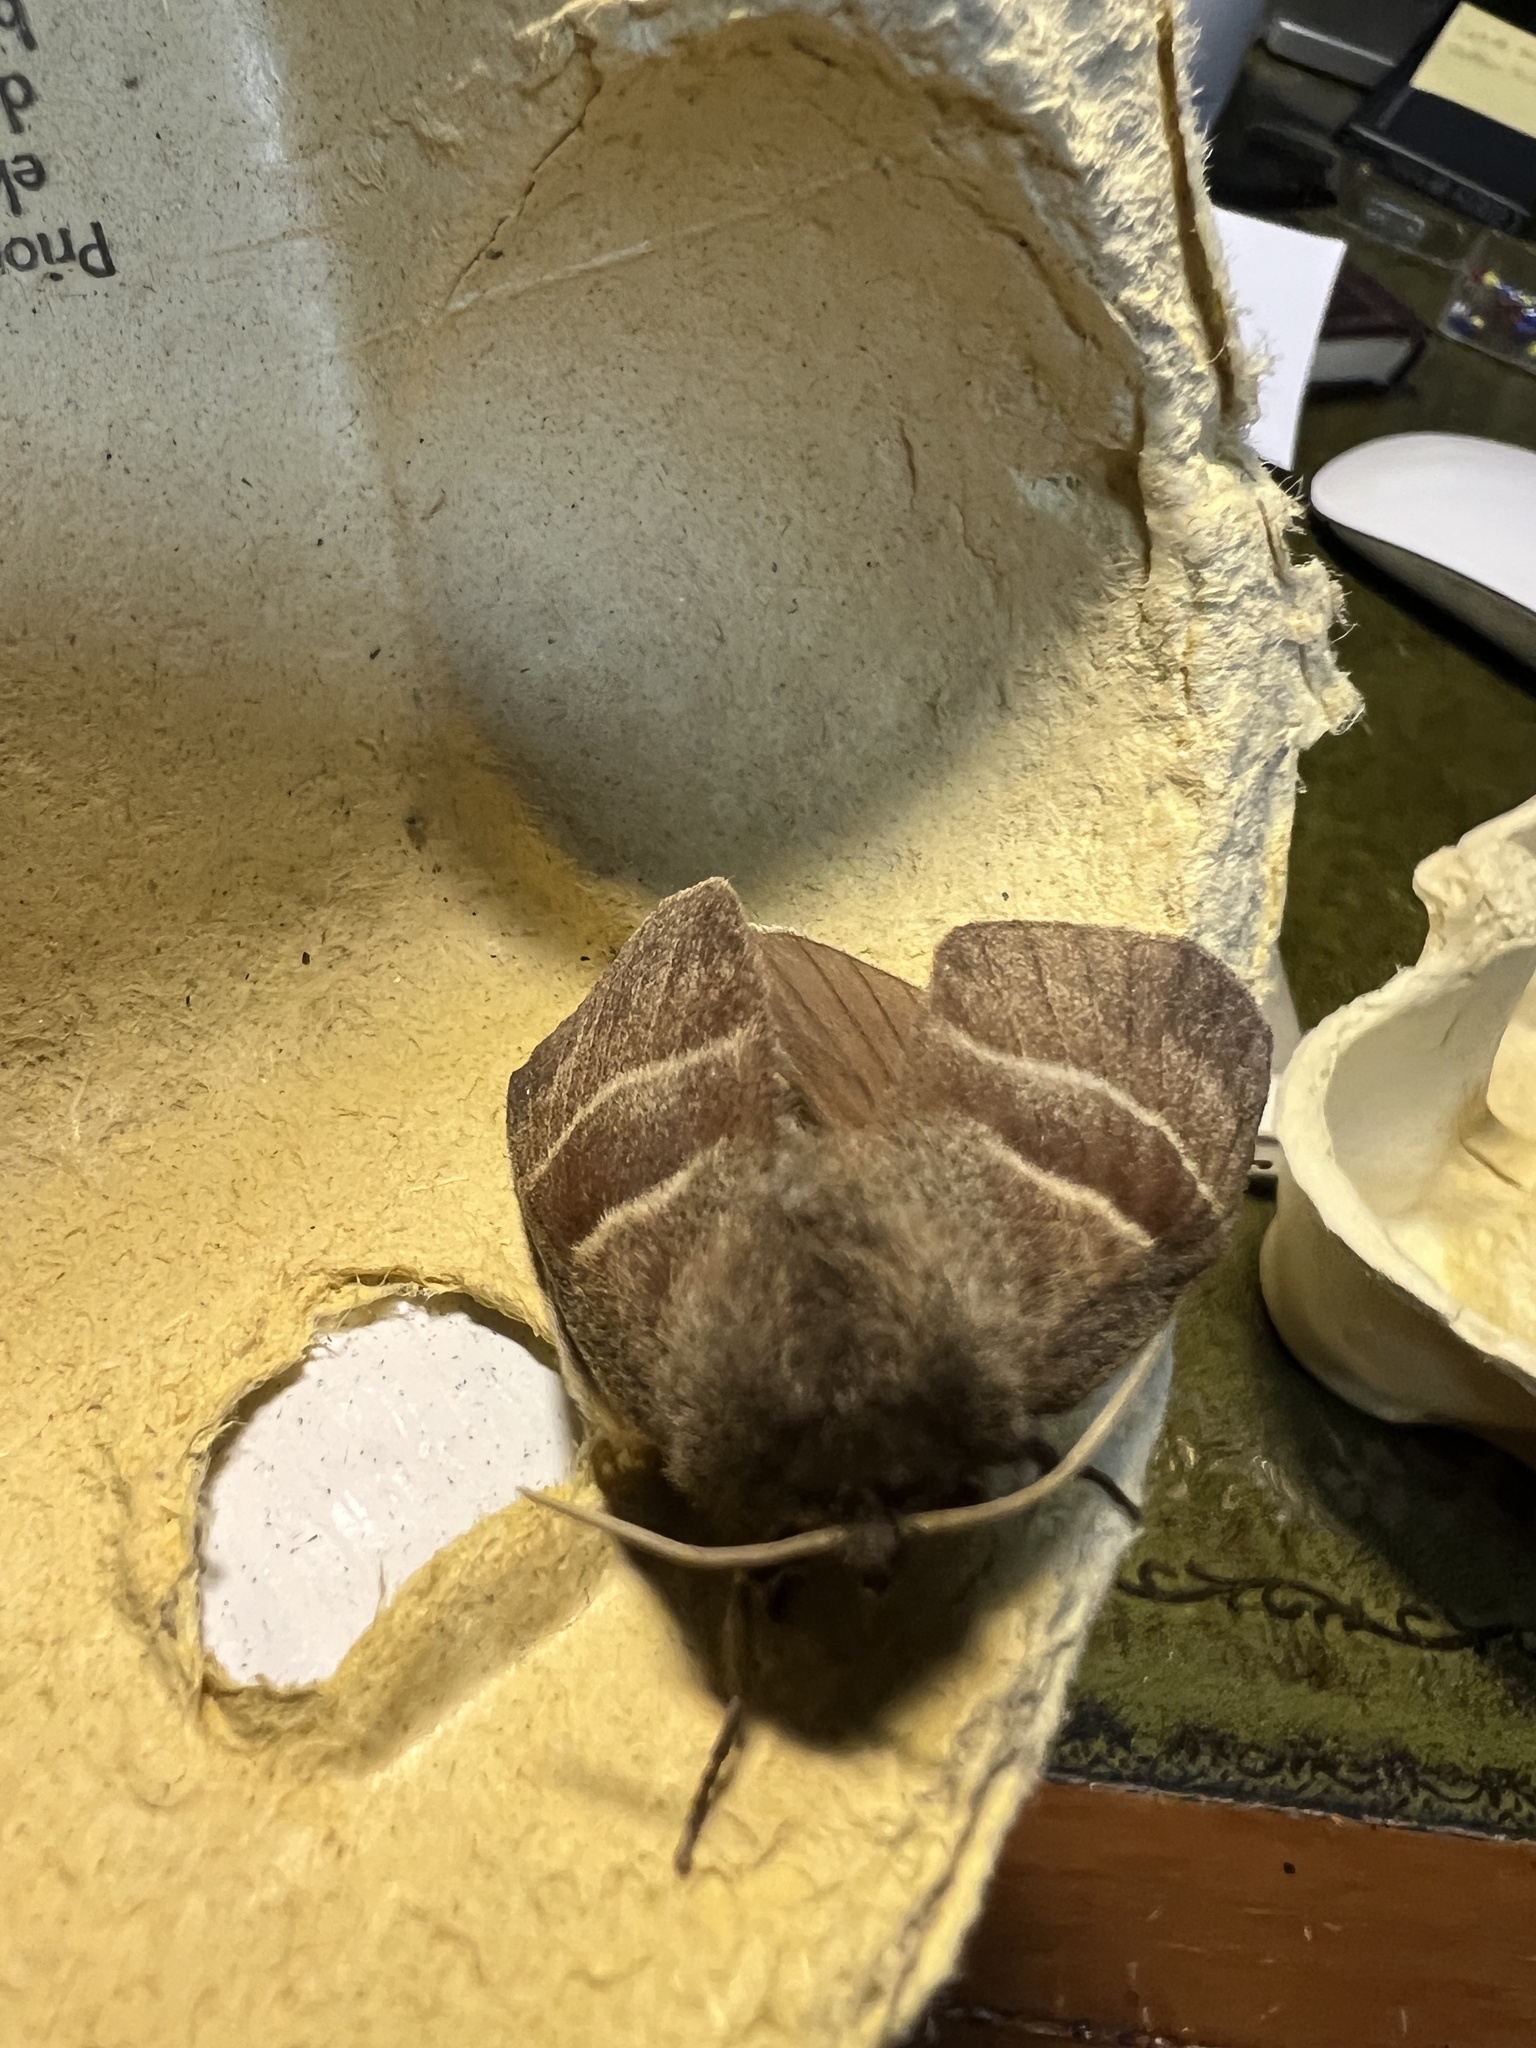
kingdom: Animalia
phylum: Arthropoda
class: Insecta
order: Lepidoptera
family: Lasiocampidae
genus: Macrothylacia
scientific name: Macrothylacia rubi
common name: Fox moth
